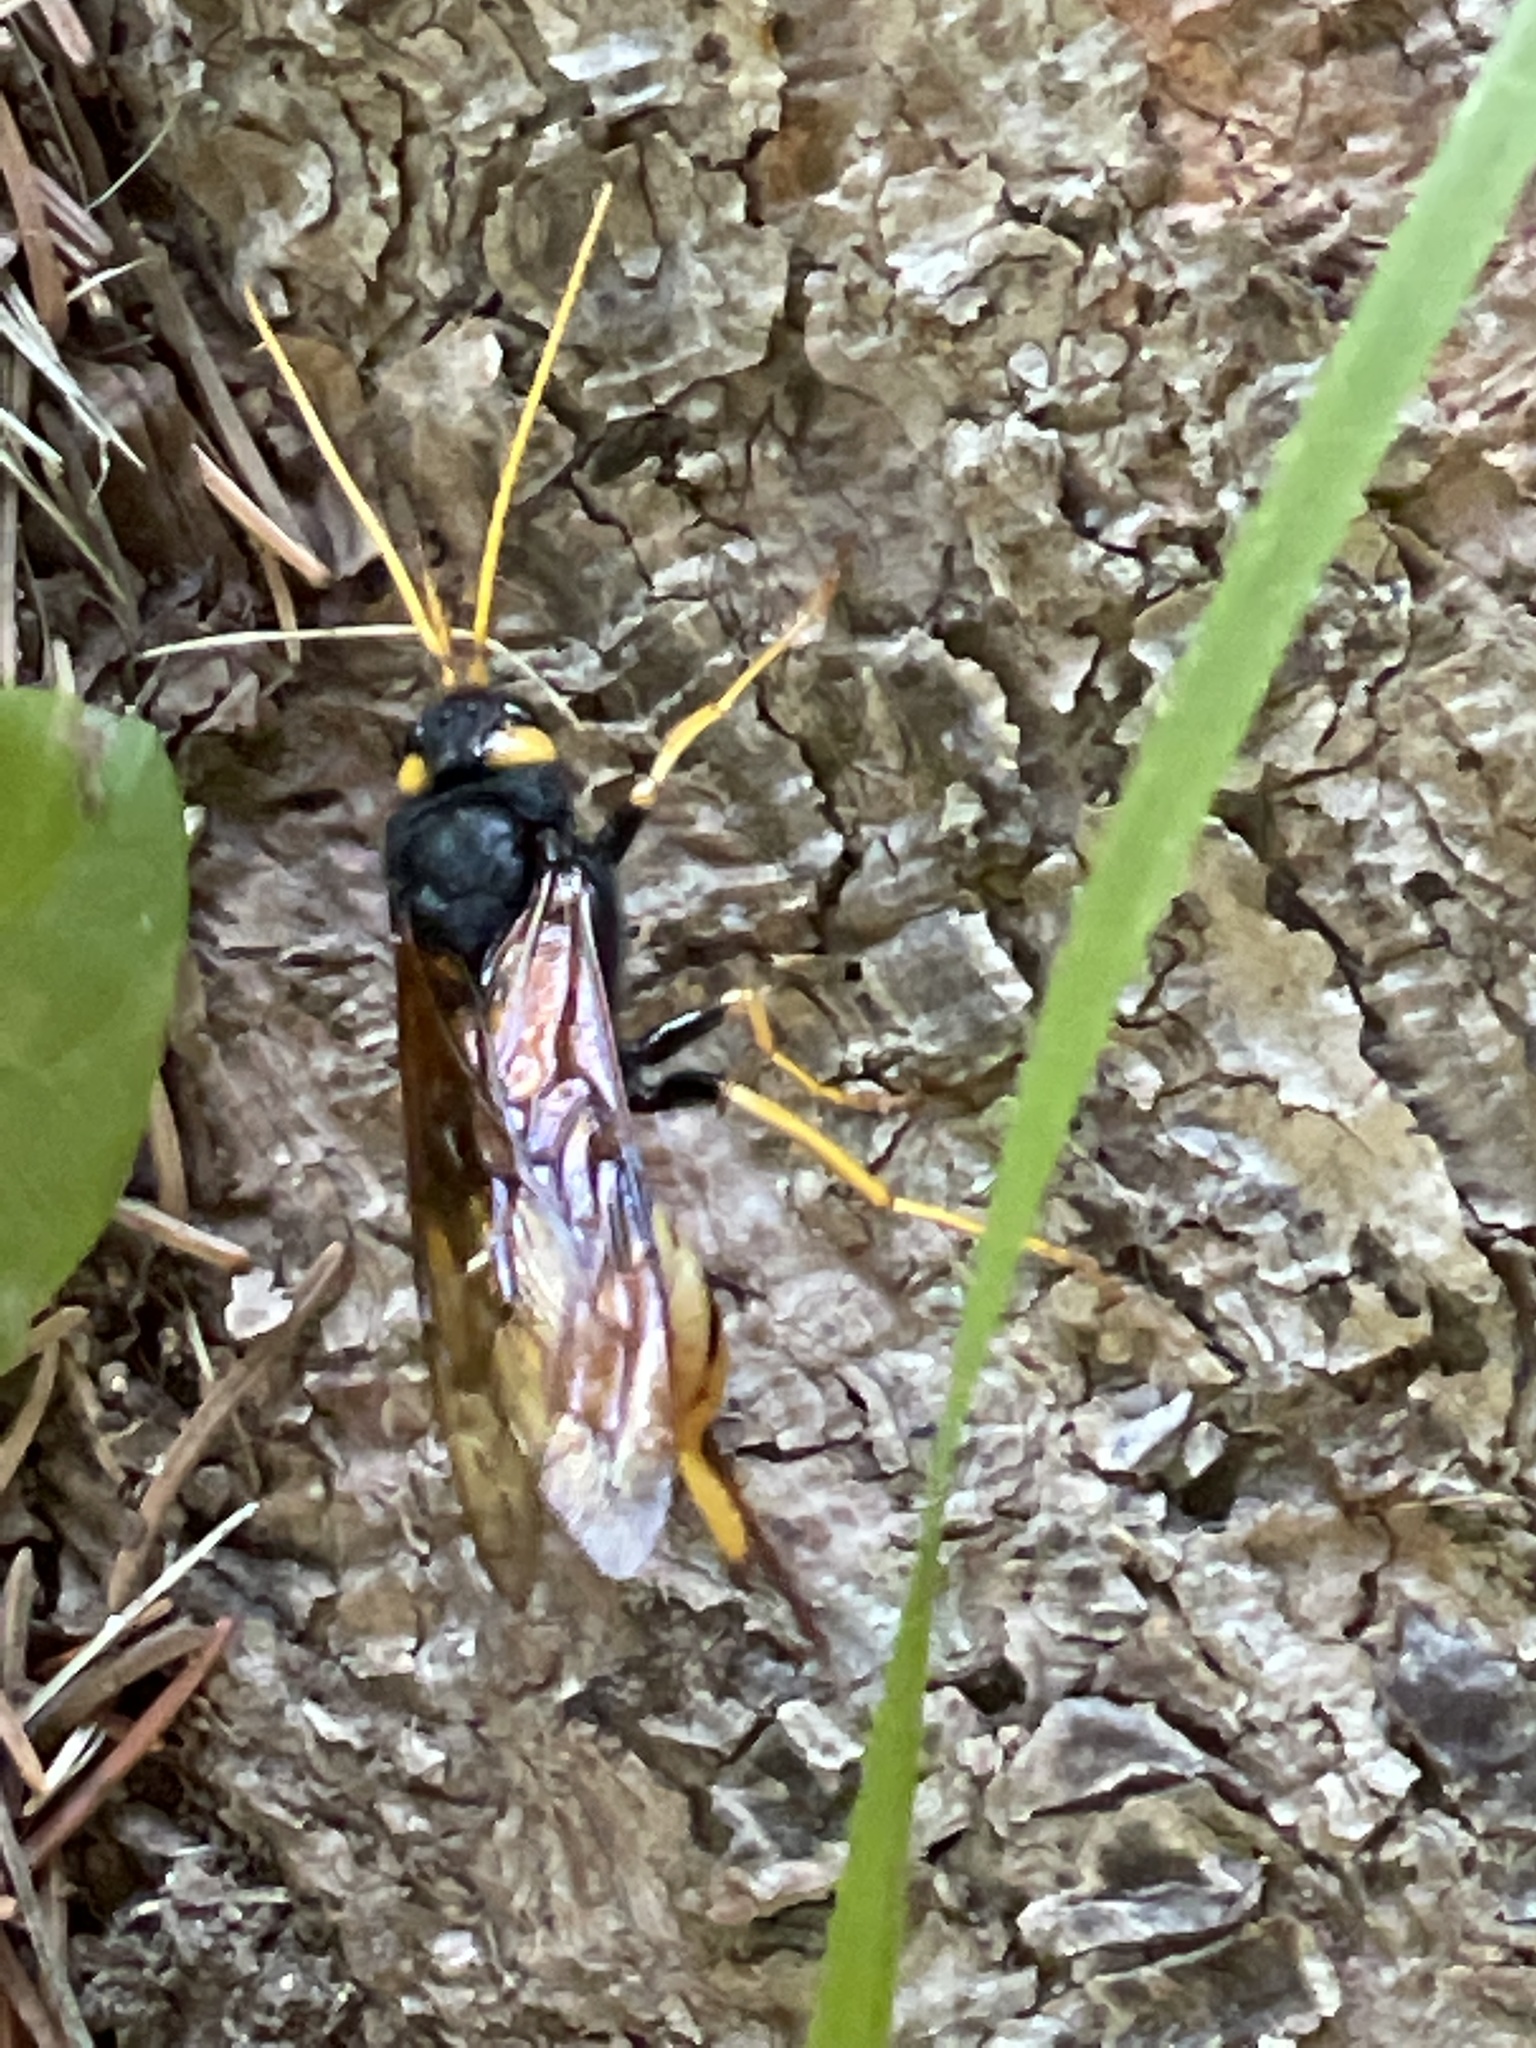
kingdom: Animalia
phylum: Arthropoda
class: Insecta
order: Hymenoptera
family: Siricidae
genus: Urocerus
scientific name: Urocerus gigas
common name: Giant woodwasp
